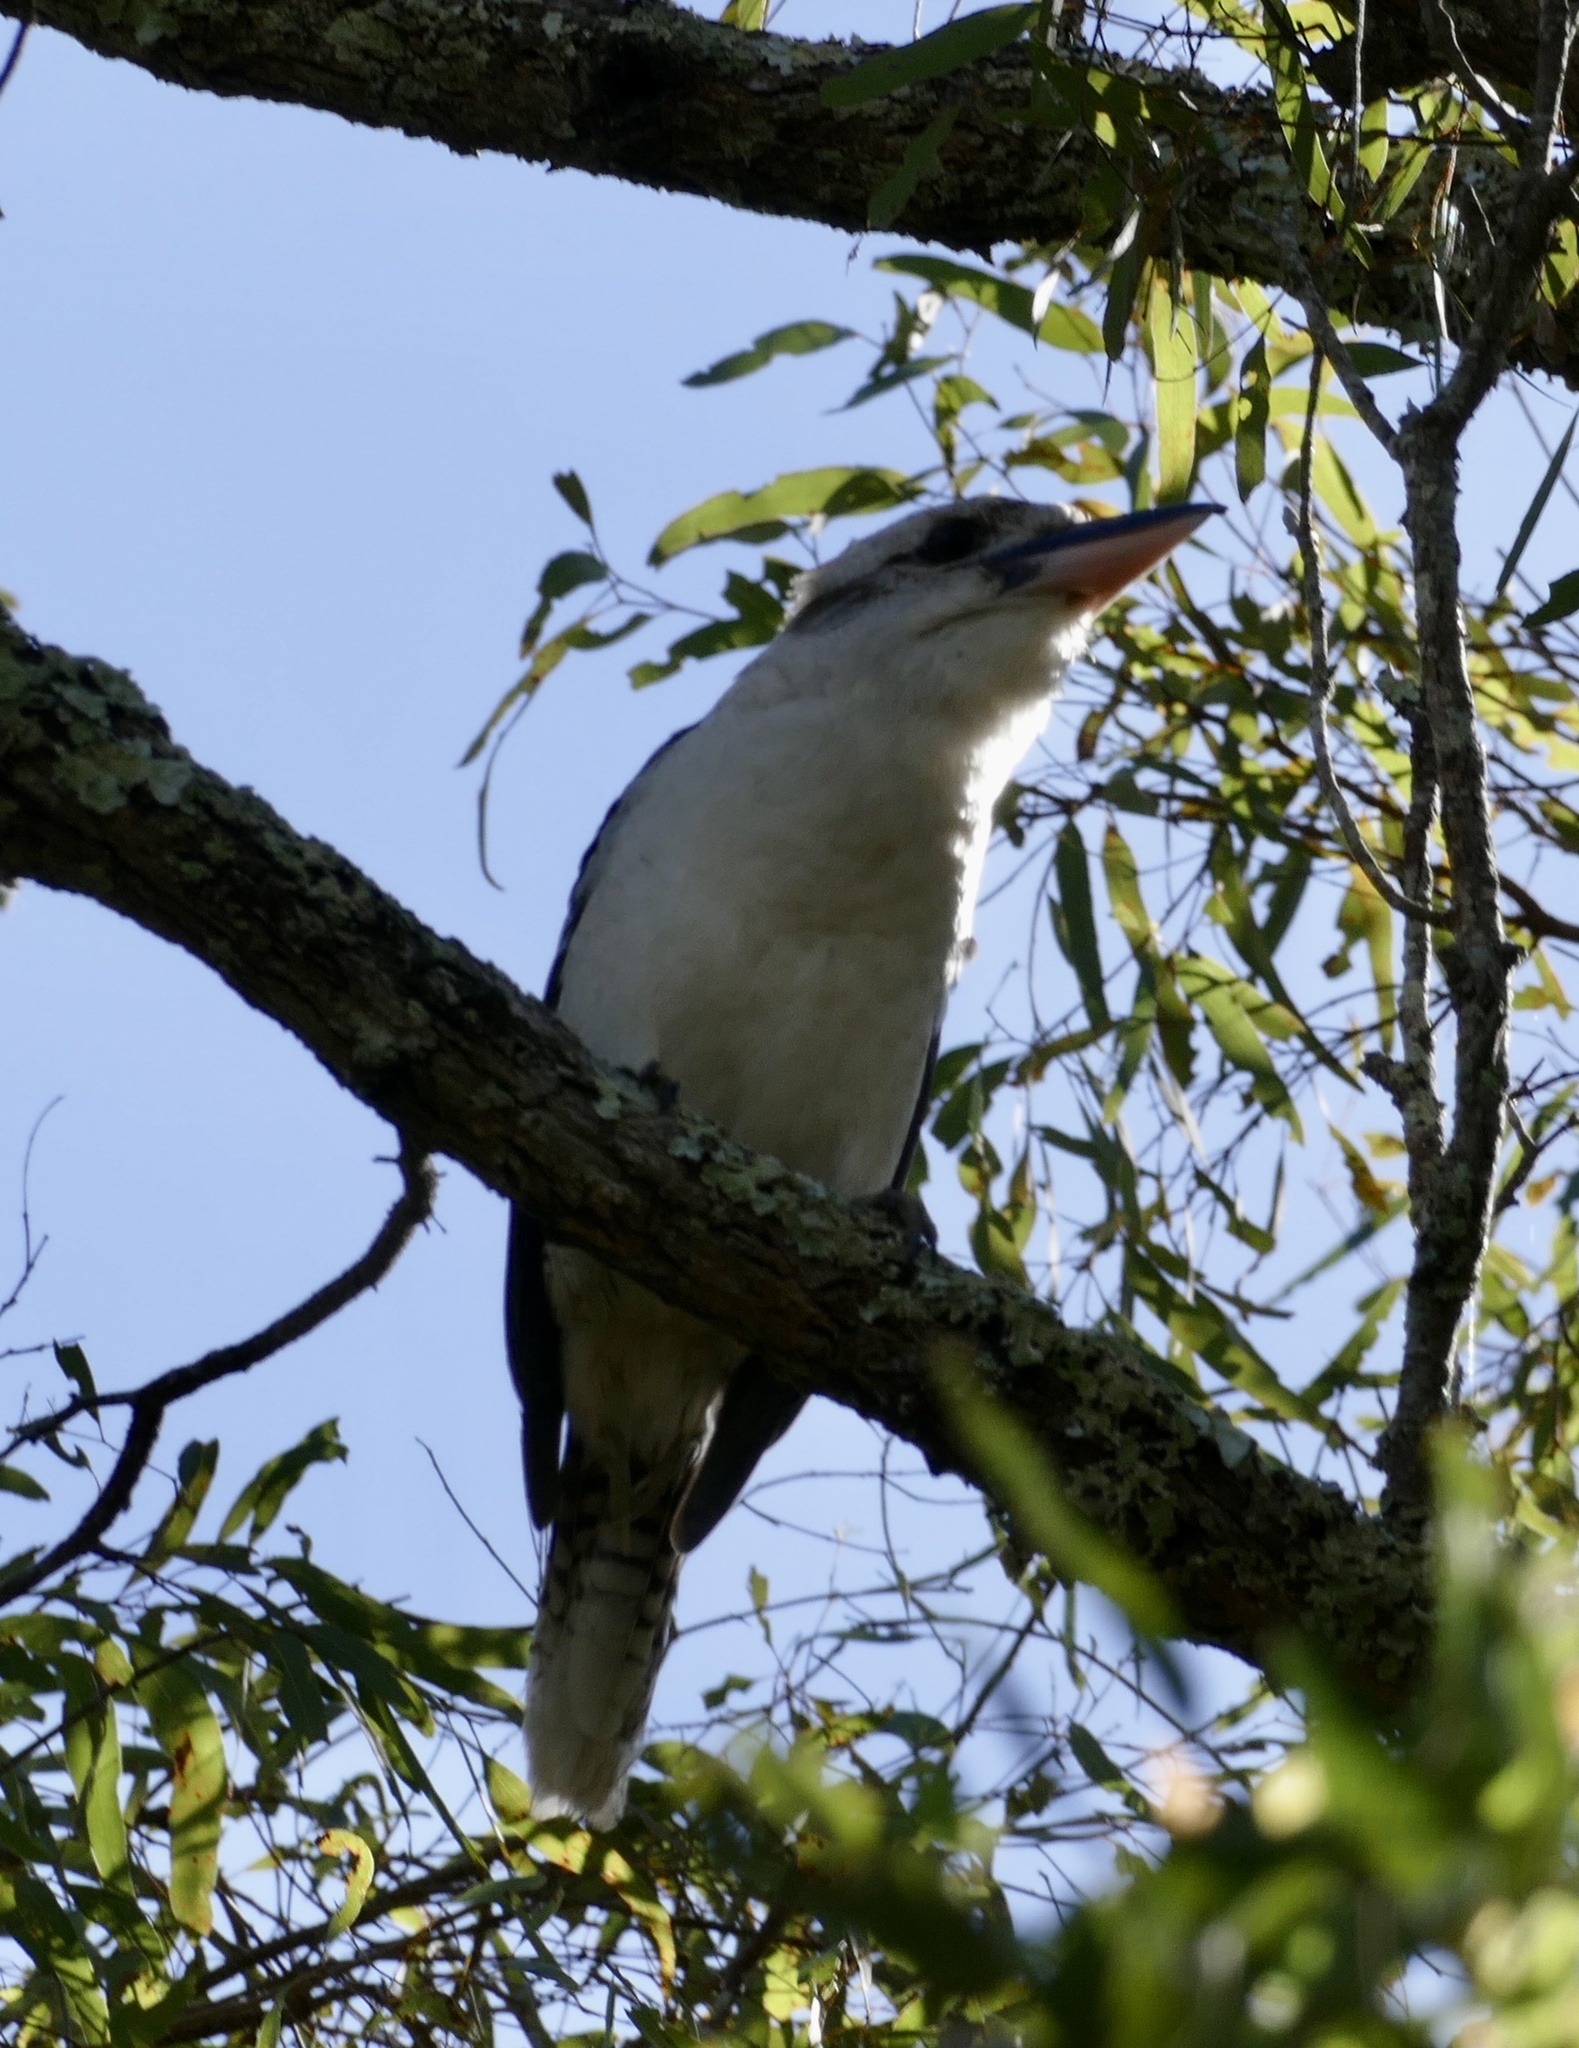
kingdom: Animalia
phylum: Chordata
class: Aves
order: Coraciiformes
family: Alcedinidae
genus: Dacelo
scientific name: Dacelo novaeguineae
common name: Laughing kookaburra
